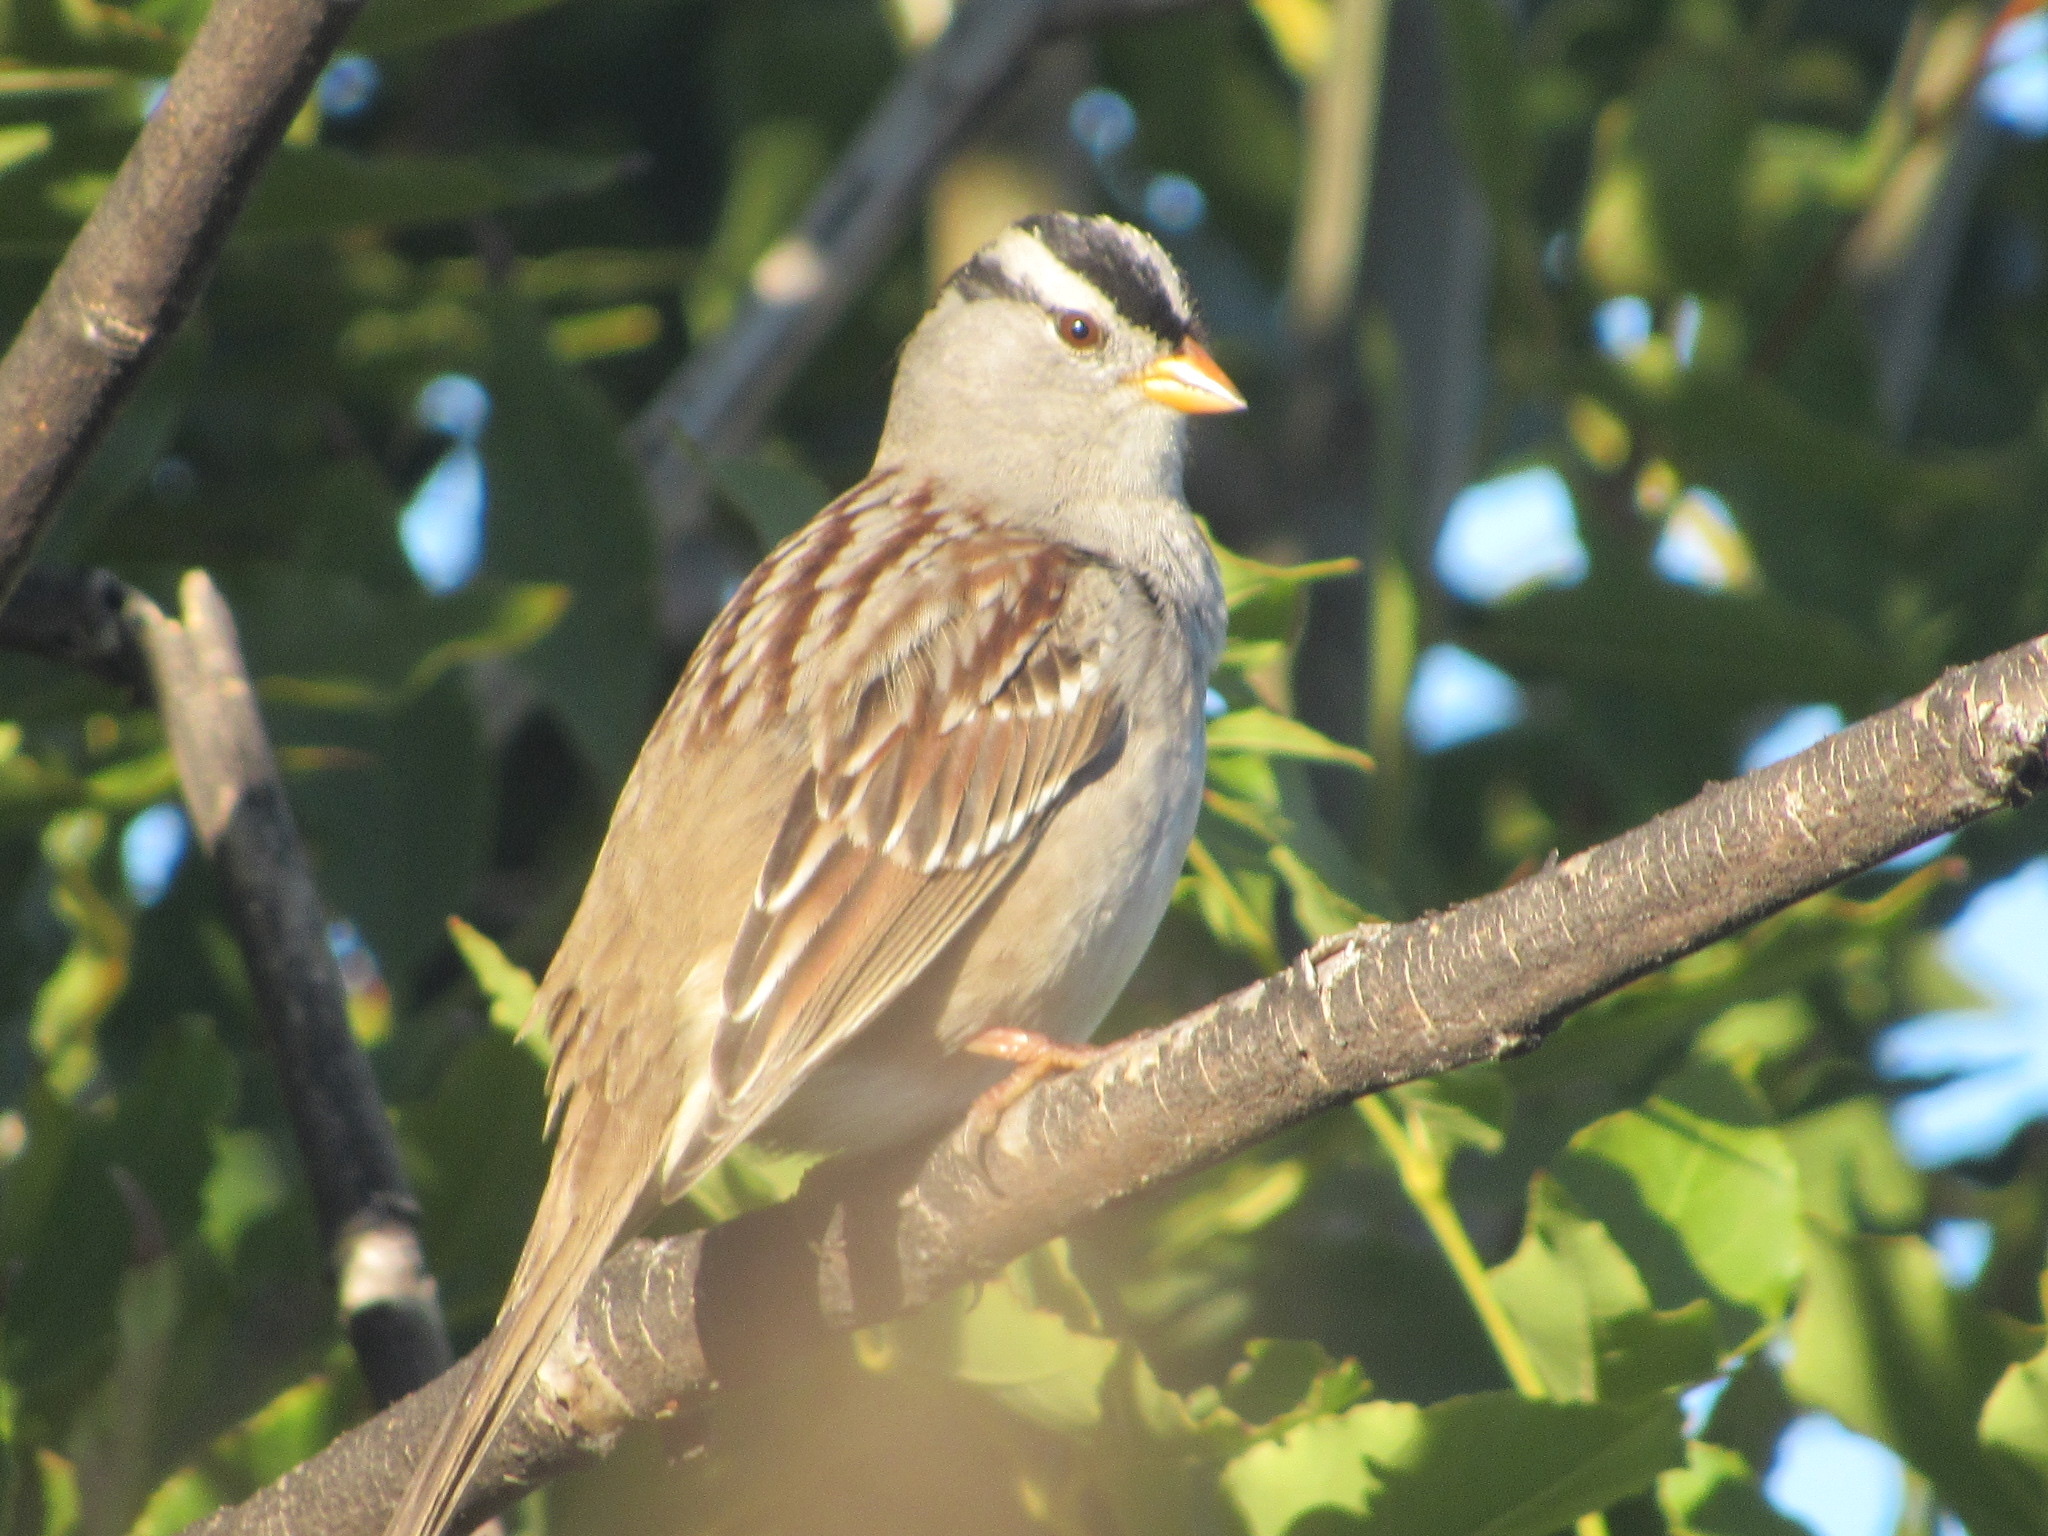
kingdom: Animalia
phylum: Chordata
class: Aves
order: Passeriformes
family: Passerellidae
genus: Zonotrichia
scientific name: Zonotrichia leucophrys
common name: White-crowned sparrow
